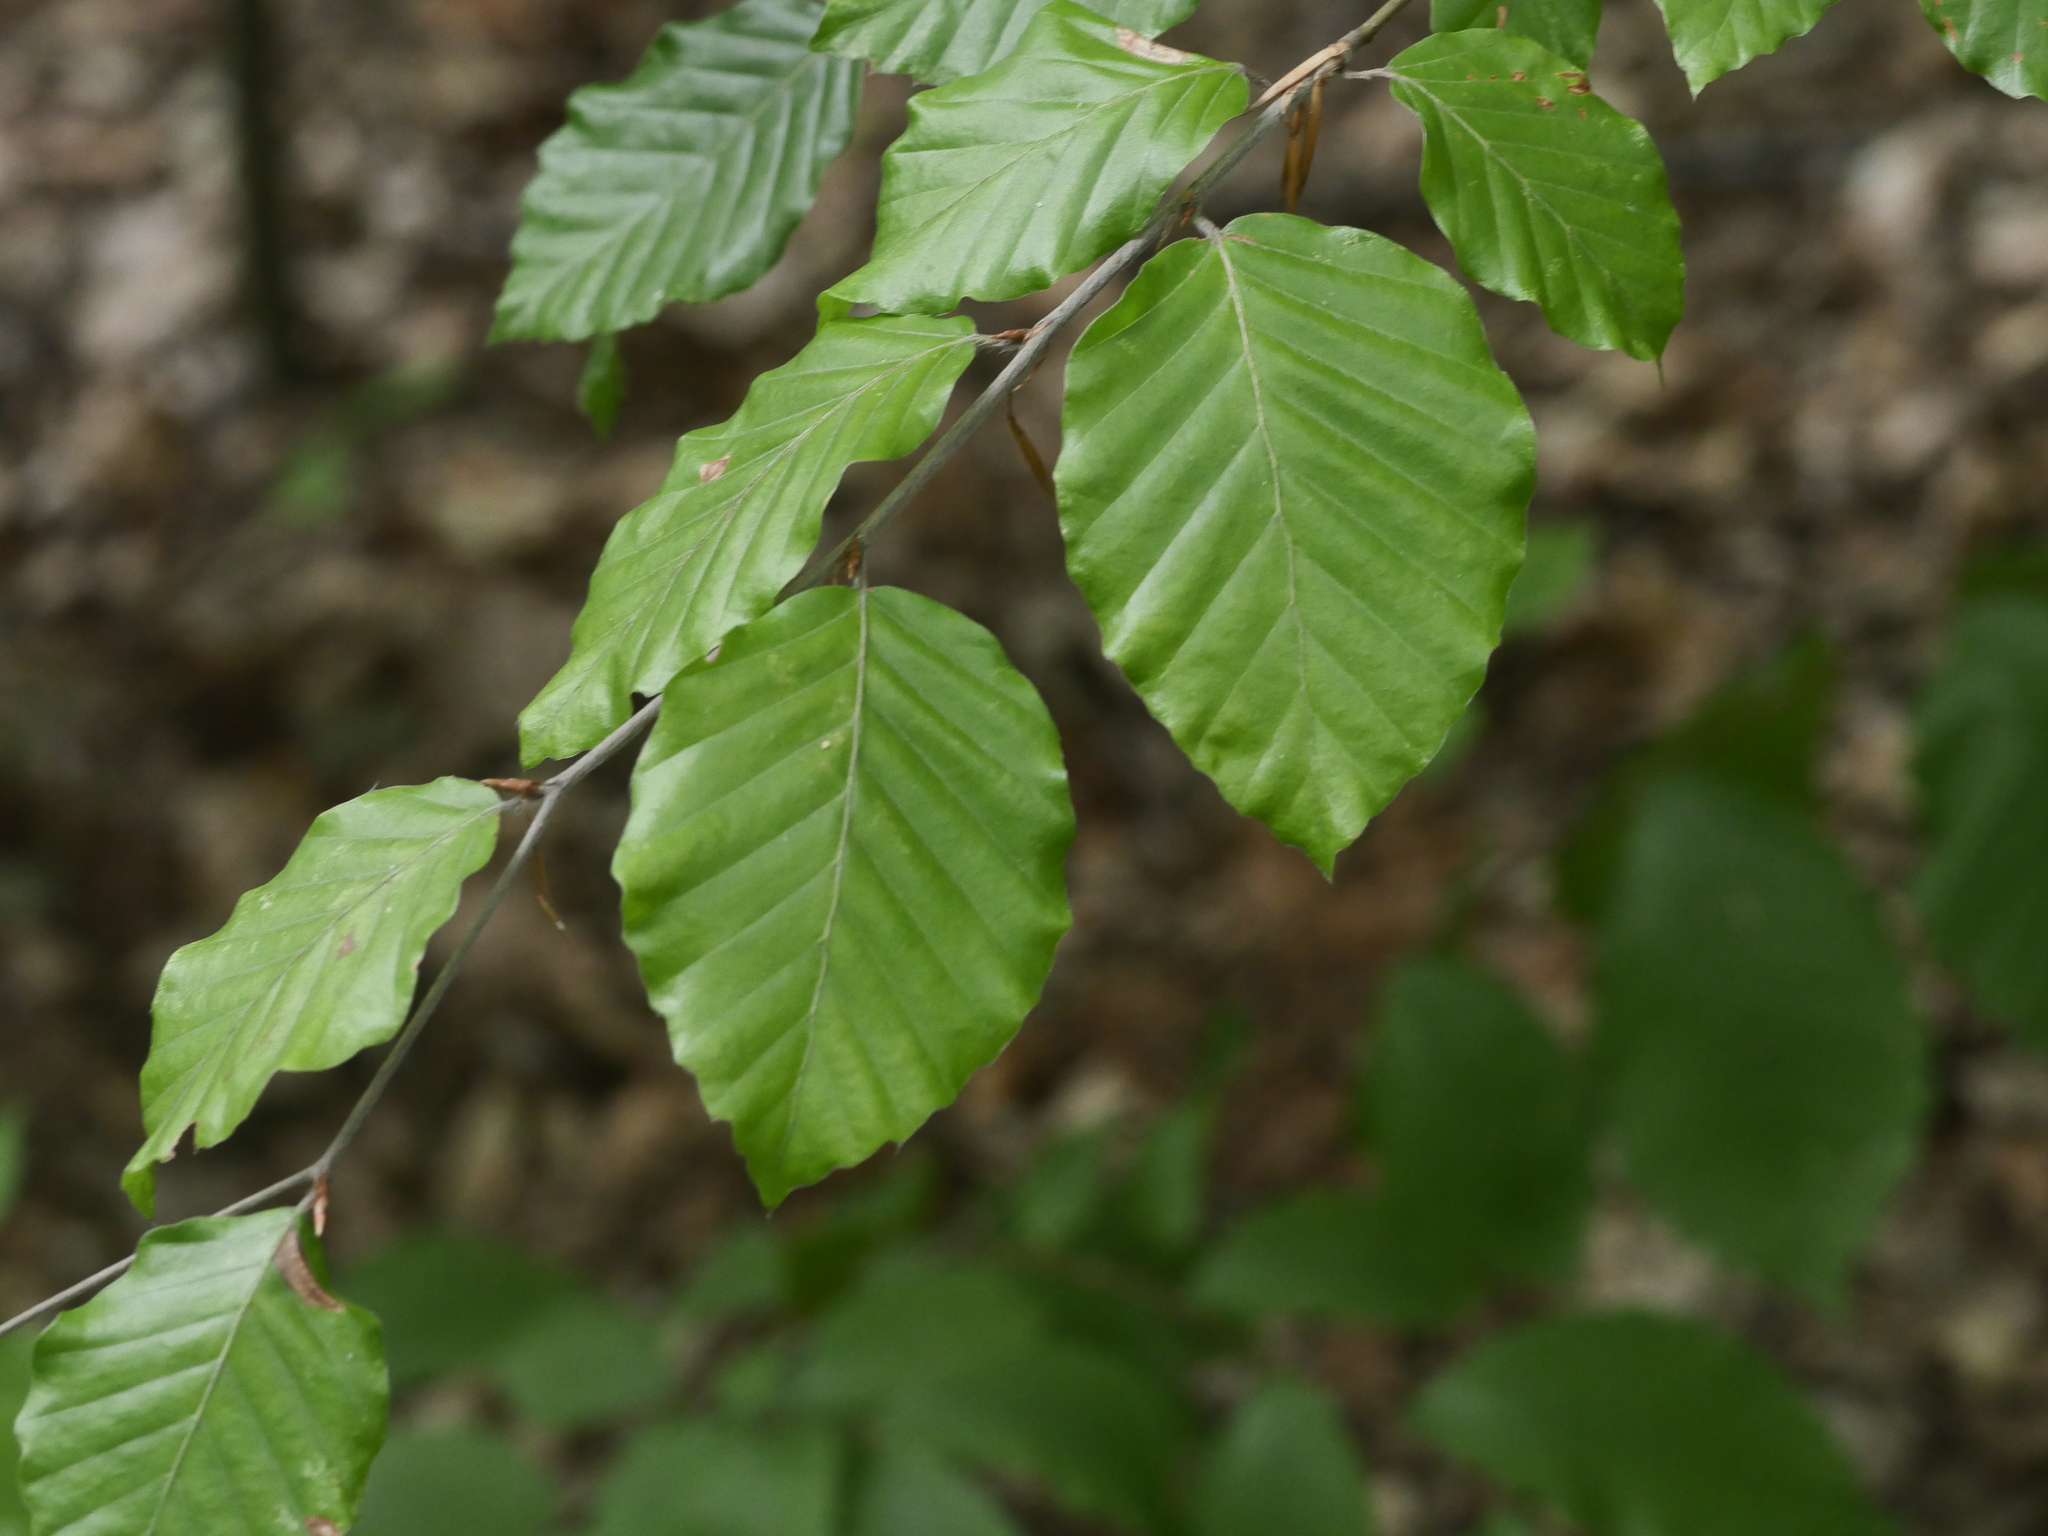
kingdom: Plantae
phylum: Tracheophyta
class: Magnoliopsida
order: Fagales
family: Fagaceae
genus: Fagus
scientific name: Fagus sylvatica
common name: Beech
